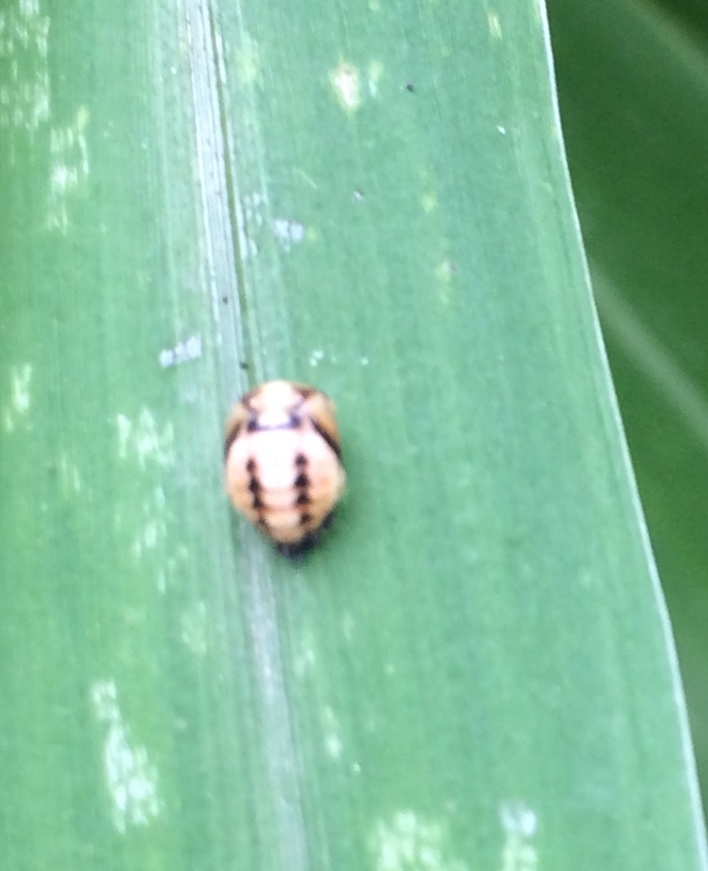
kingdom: Animalia
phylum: Arthropoda
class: Insecta
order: Coleoptera
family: Coccinellidae
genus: Cheilomenes
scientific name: Cheilomenes sexmaculata
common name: Ladybird beetle
